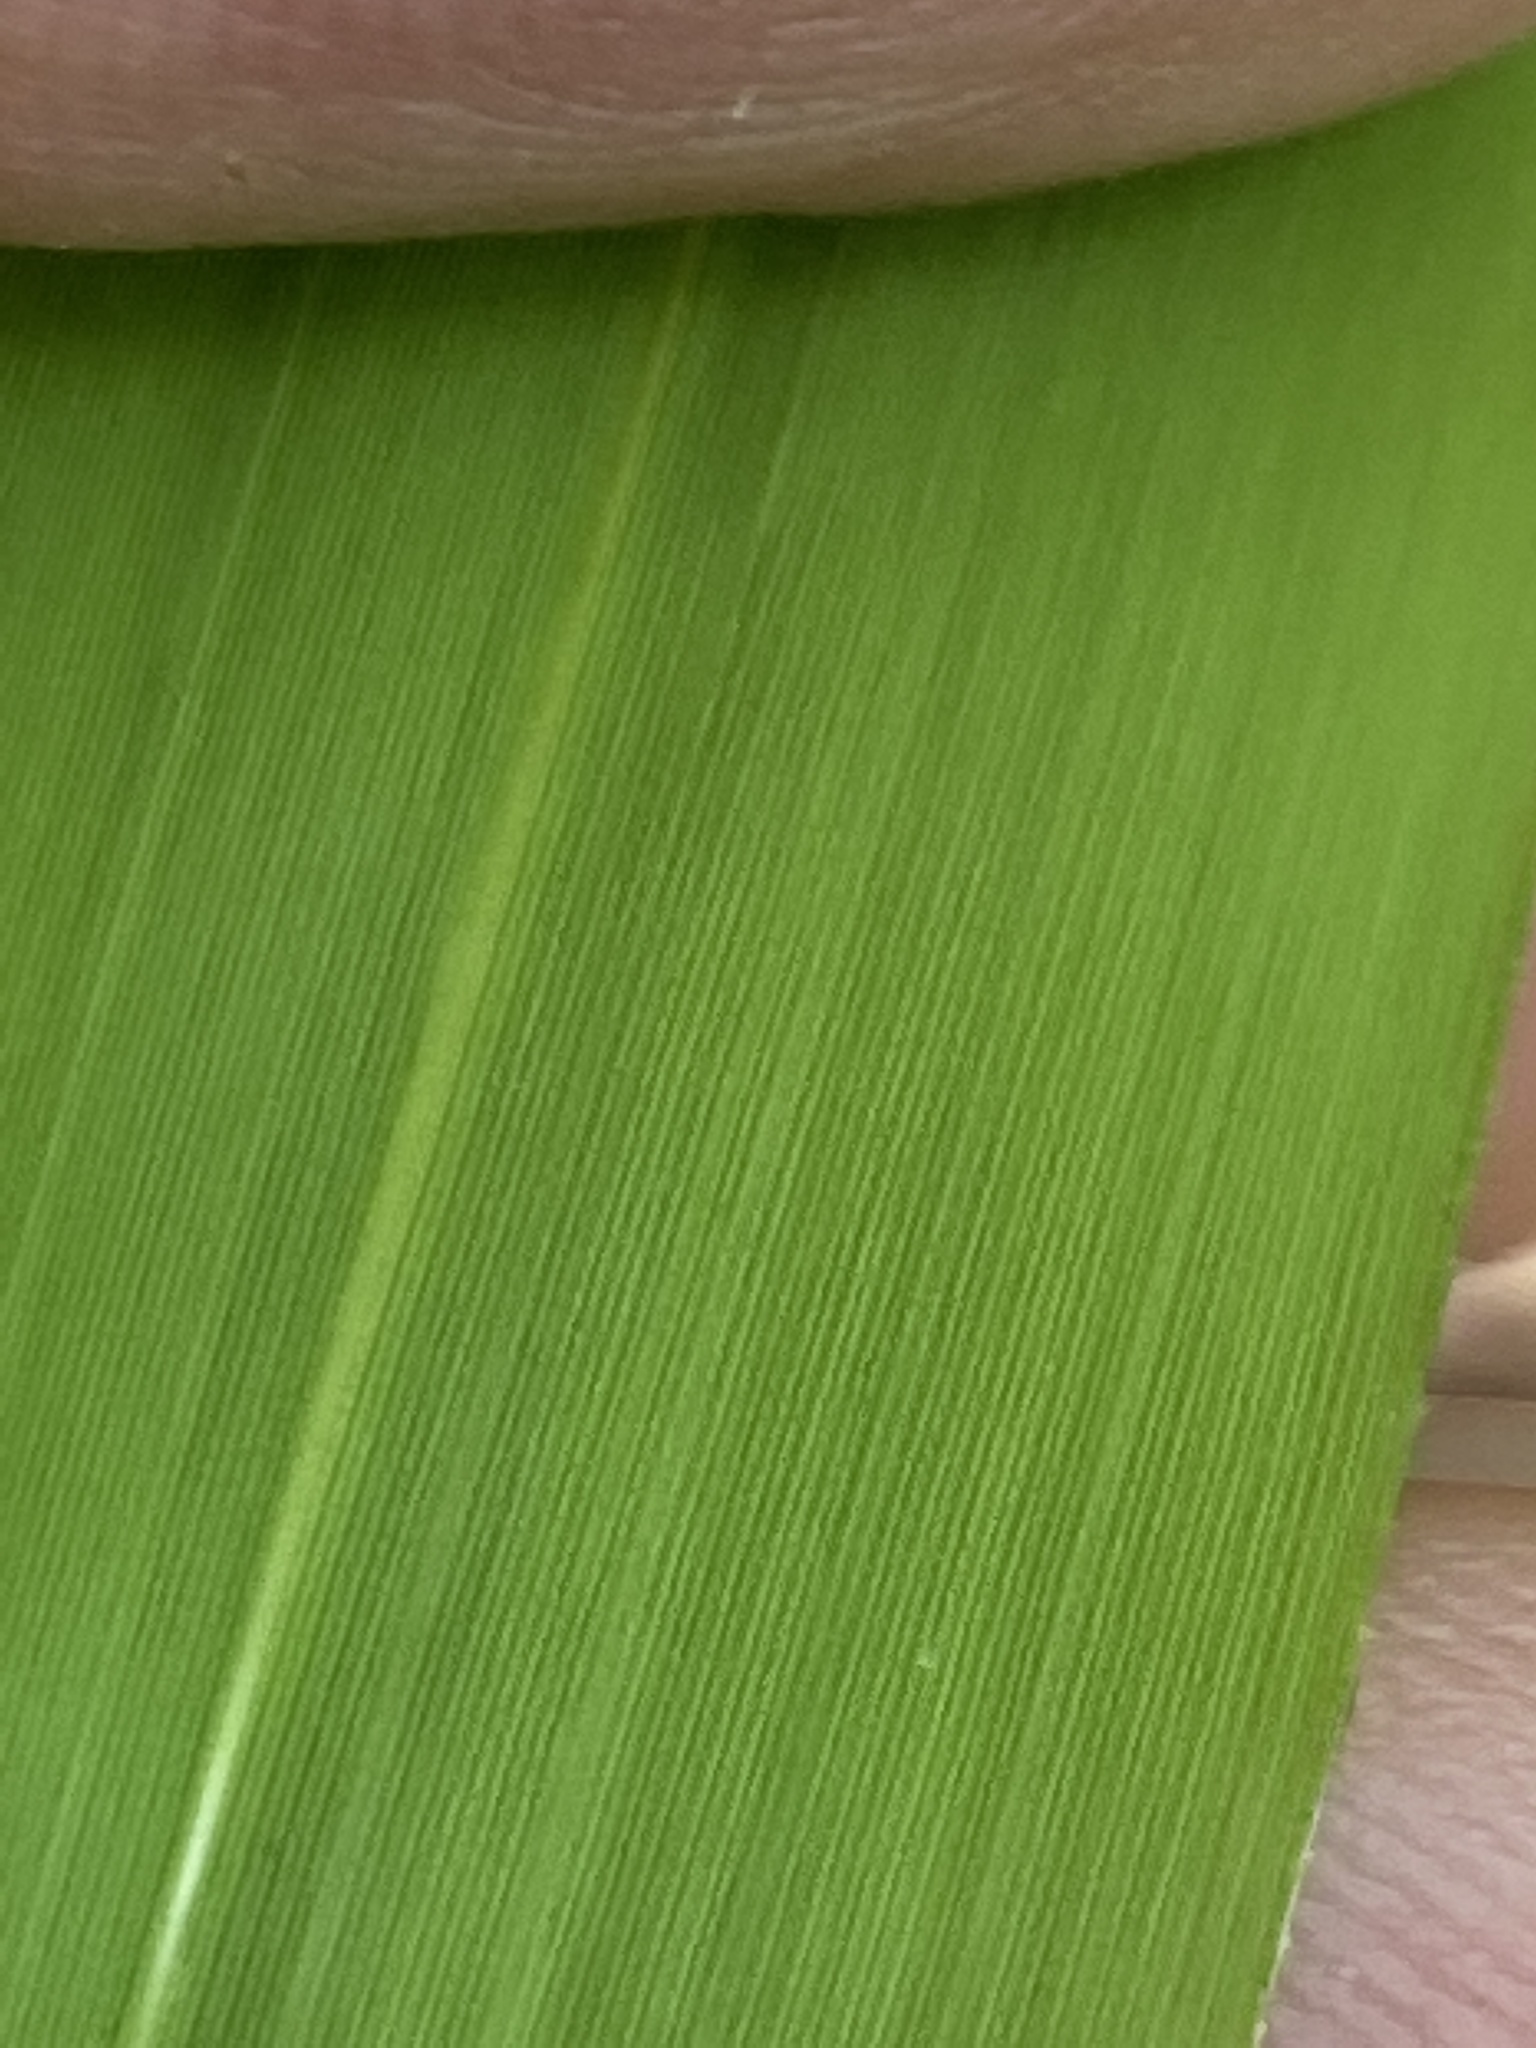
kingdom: Plantae
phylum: Tracheophyta
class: Liliopsida
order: Poales
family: Poaceae
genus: Arundinaria
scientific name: Arundinaria tecta
